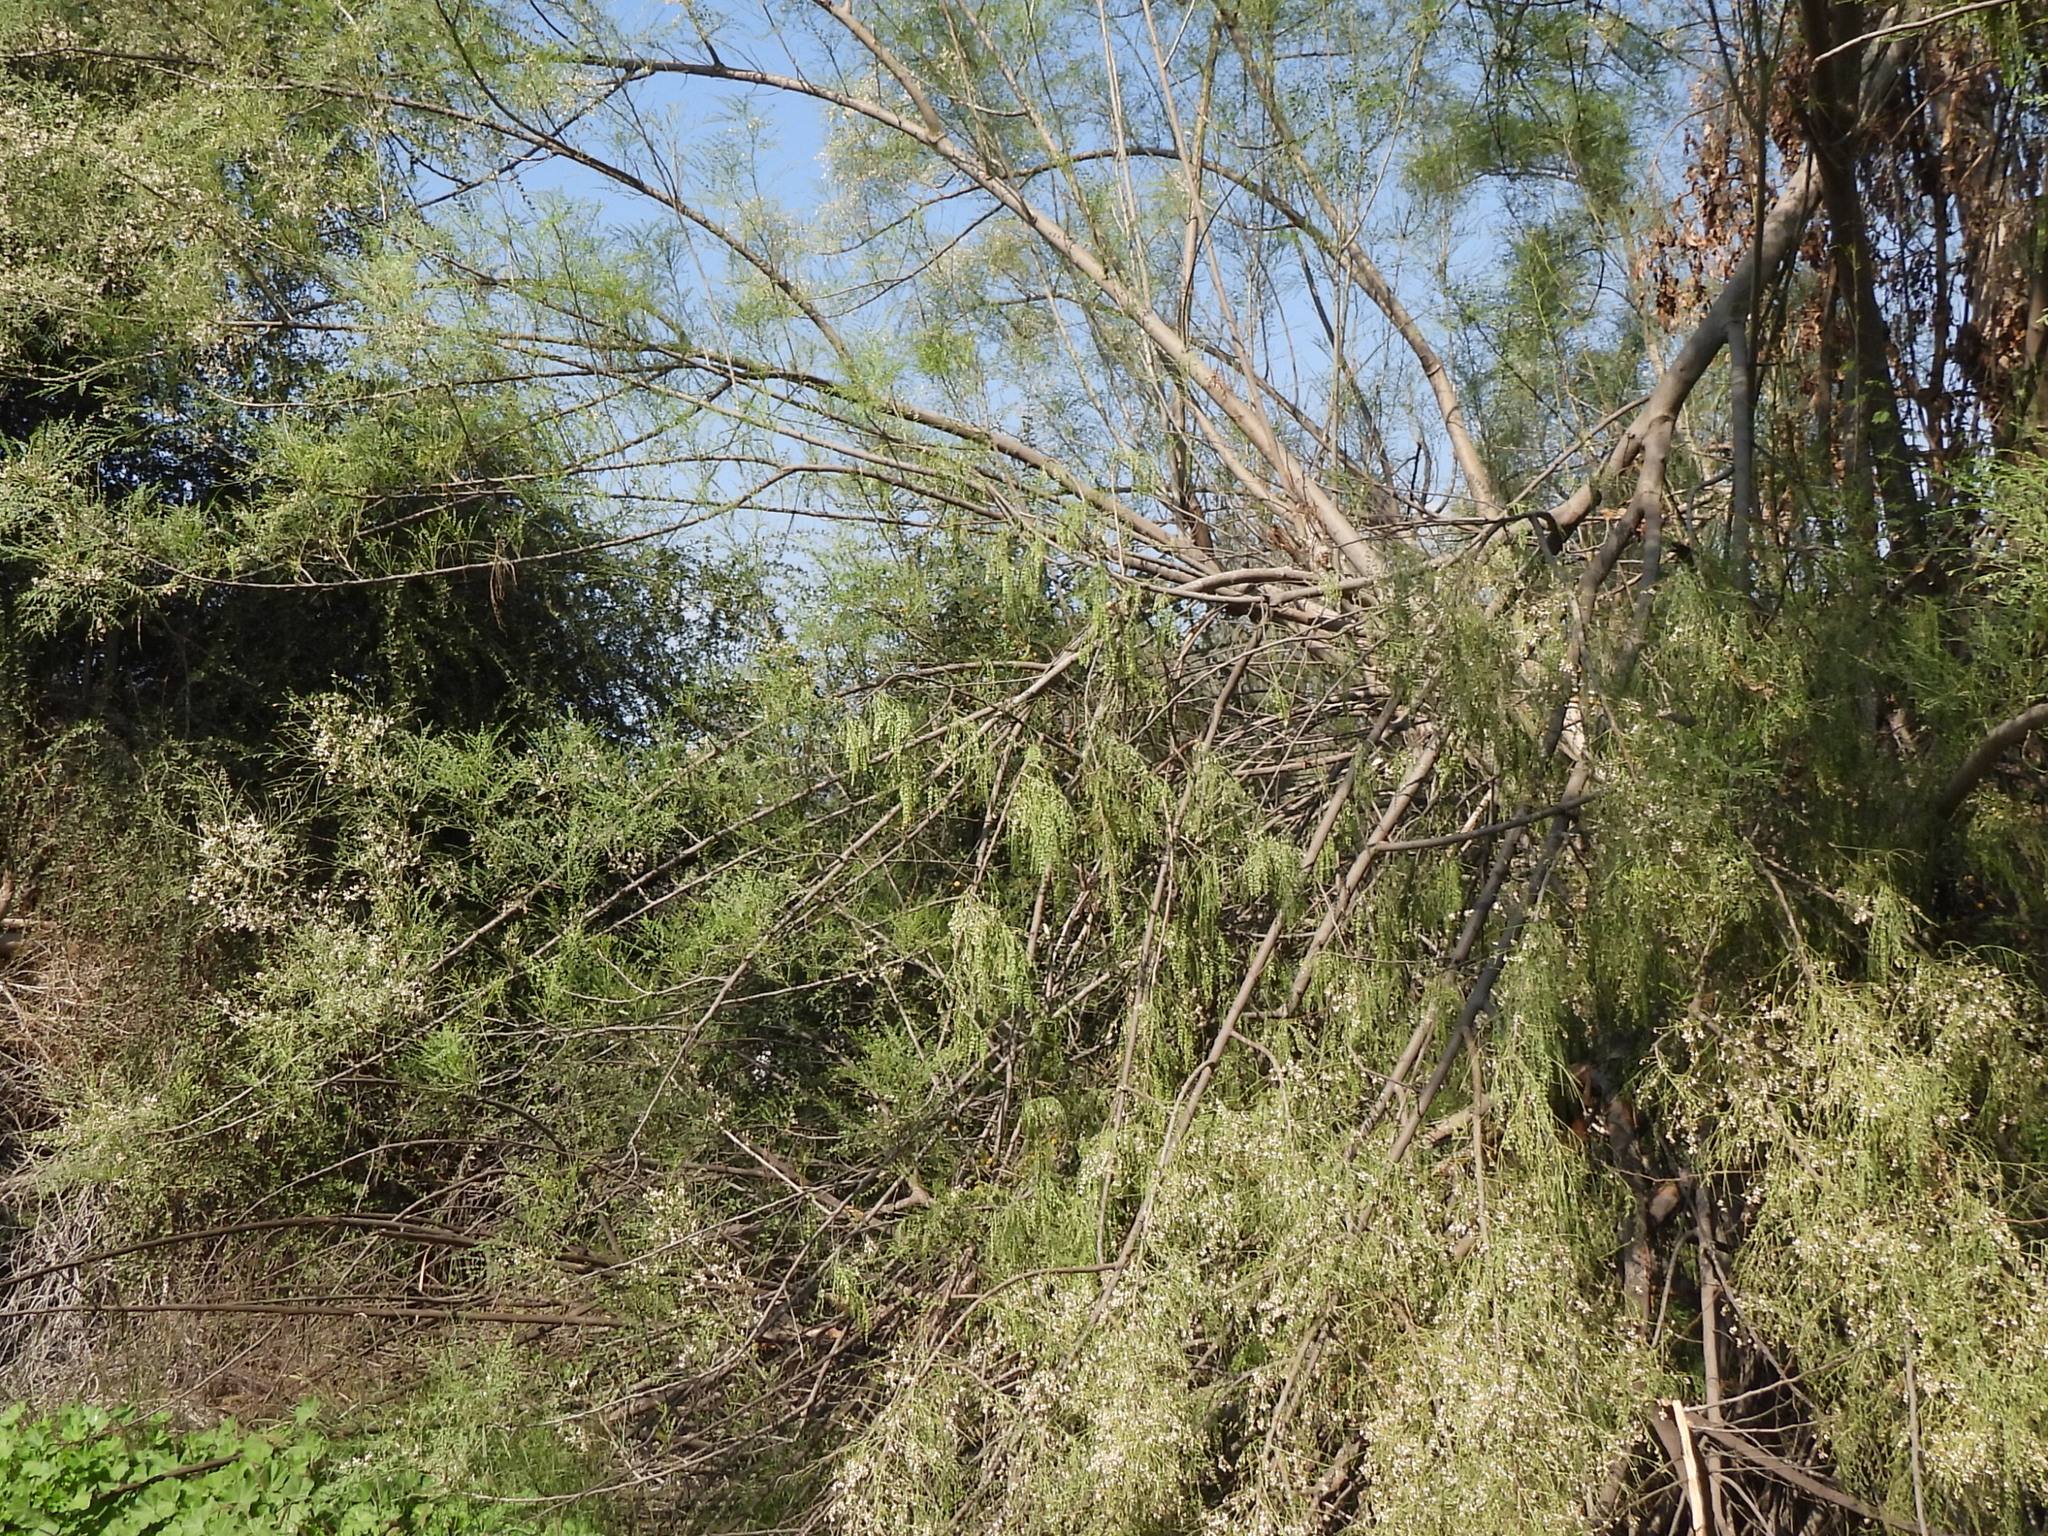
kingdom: Plantae
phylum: Tracheophyta
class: Magnoliopsida
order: Brassicales
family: Moringaceae
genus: Moringa
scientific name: Moringa peregrina
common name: Wild drumstick tree
